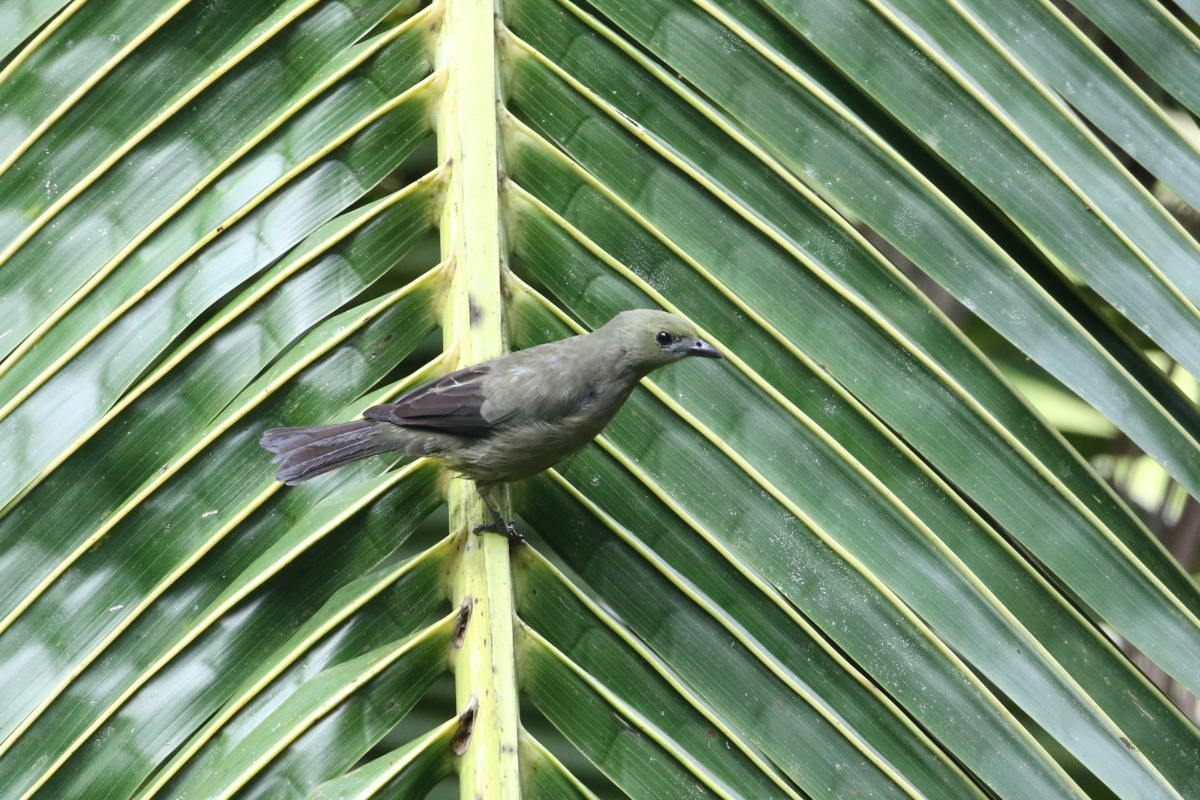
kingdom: Animalia
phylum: Chordata
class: Aves
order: Passeriformes
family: Thraupidae
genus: Thraupis
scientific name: Thraupis palmarum
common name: Palm tanager
